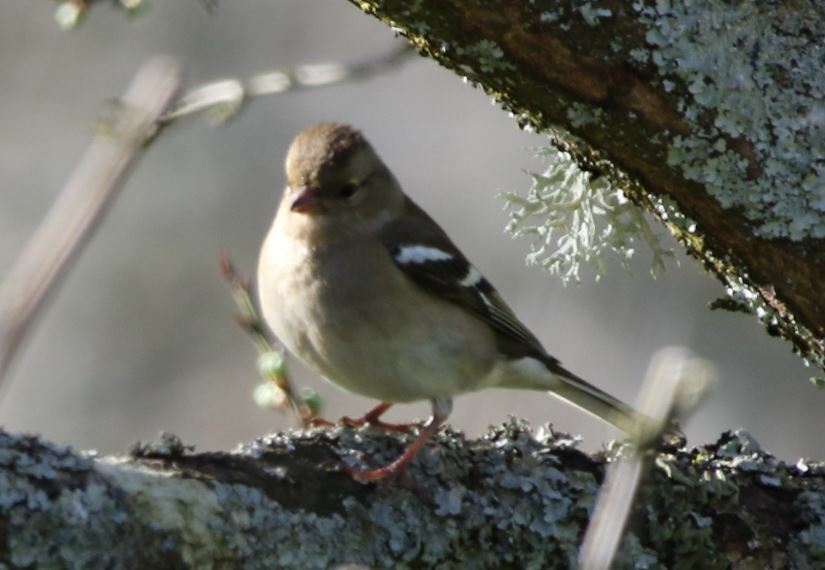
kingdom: Animalia
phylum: Chordata
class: Aves
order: Passeriformes
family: Fringillidae
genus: Fringilla
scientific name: Fringilla coelebs
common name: Common chaffinch
